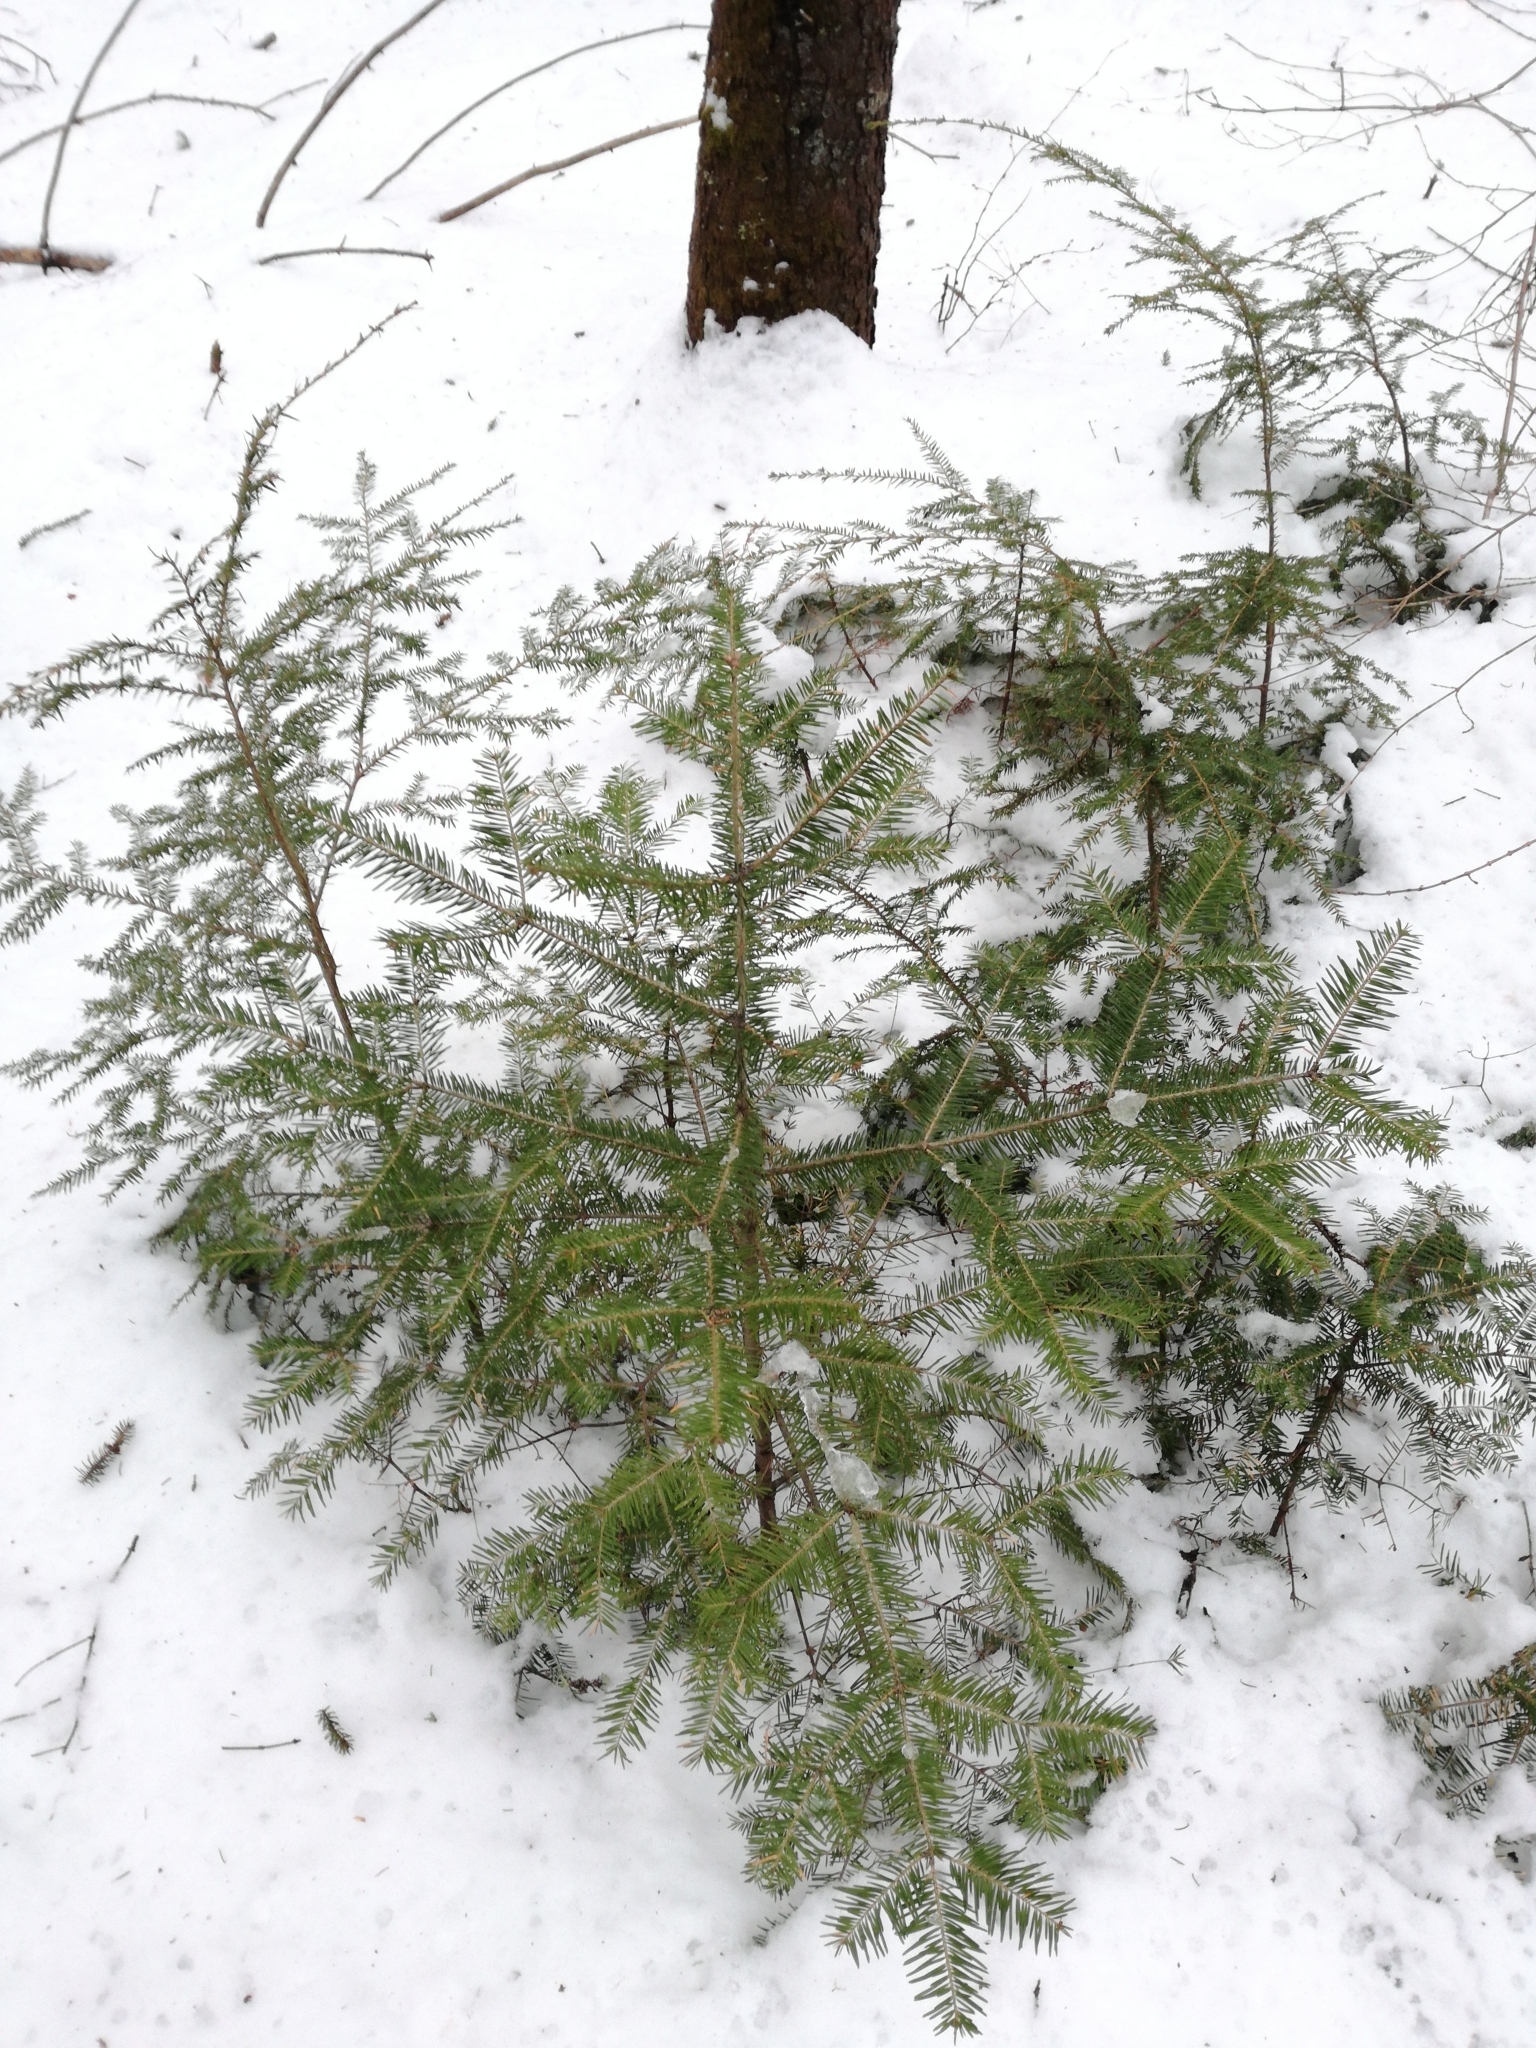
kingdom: Plantae
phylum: Tracheophyta
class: Pinopsida
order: Pinales
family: Pinaceae
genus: Abies
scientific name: Abies balsamea
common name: Balsam fir
